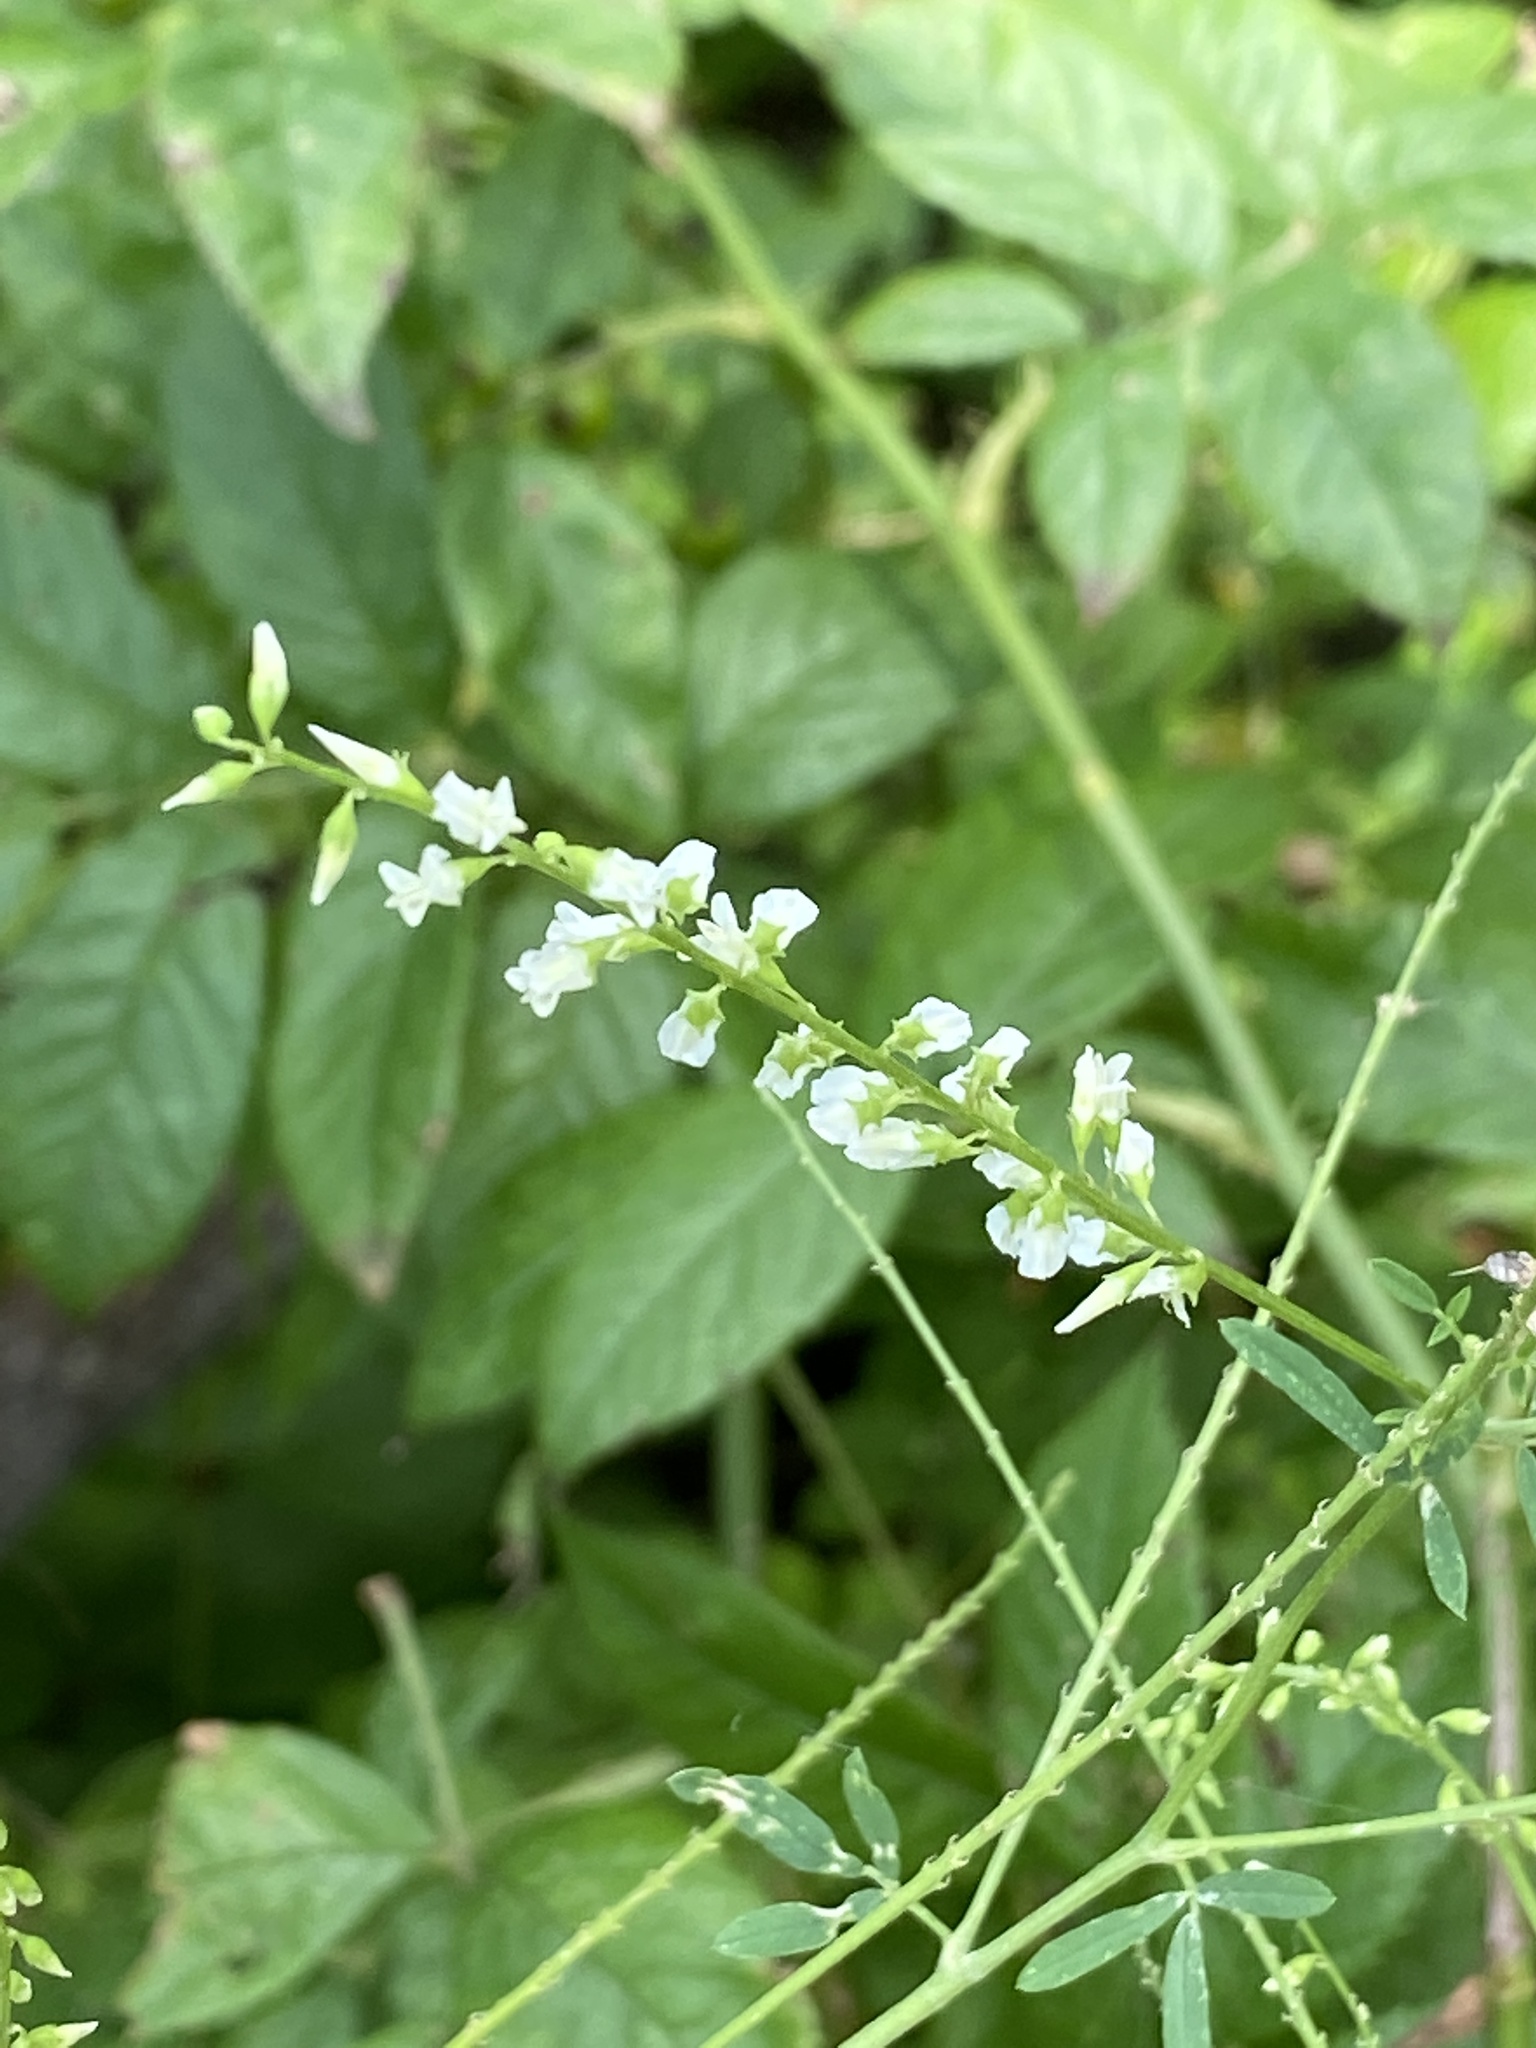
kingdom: Plantae
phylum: Tracheophyta
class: Magnoliopsida
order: Fabales
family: Fabaceae
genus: Melilotus
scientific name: Melilotus albus
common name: White melilot
